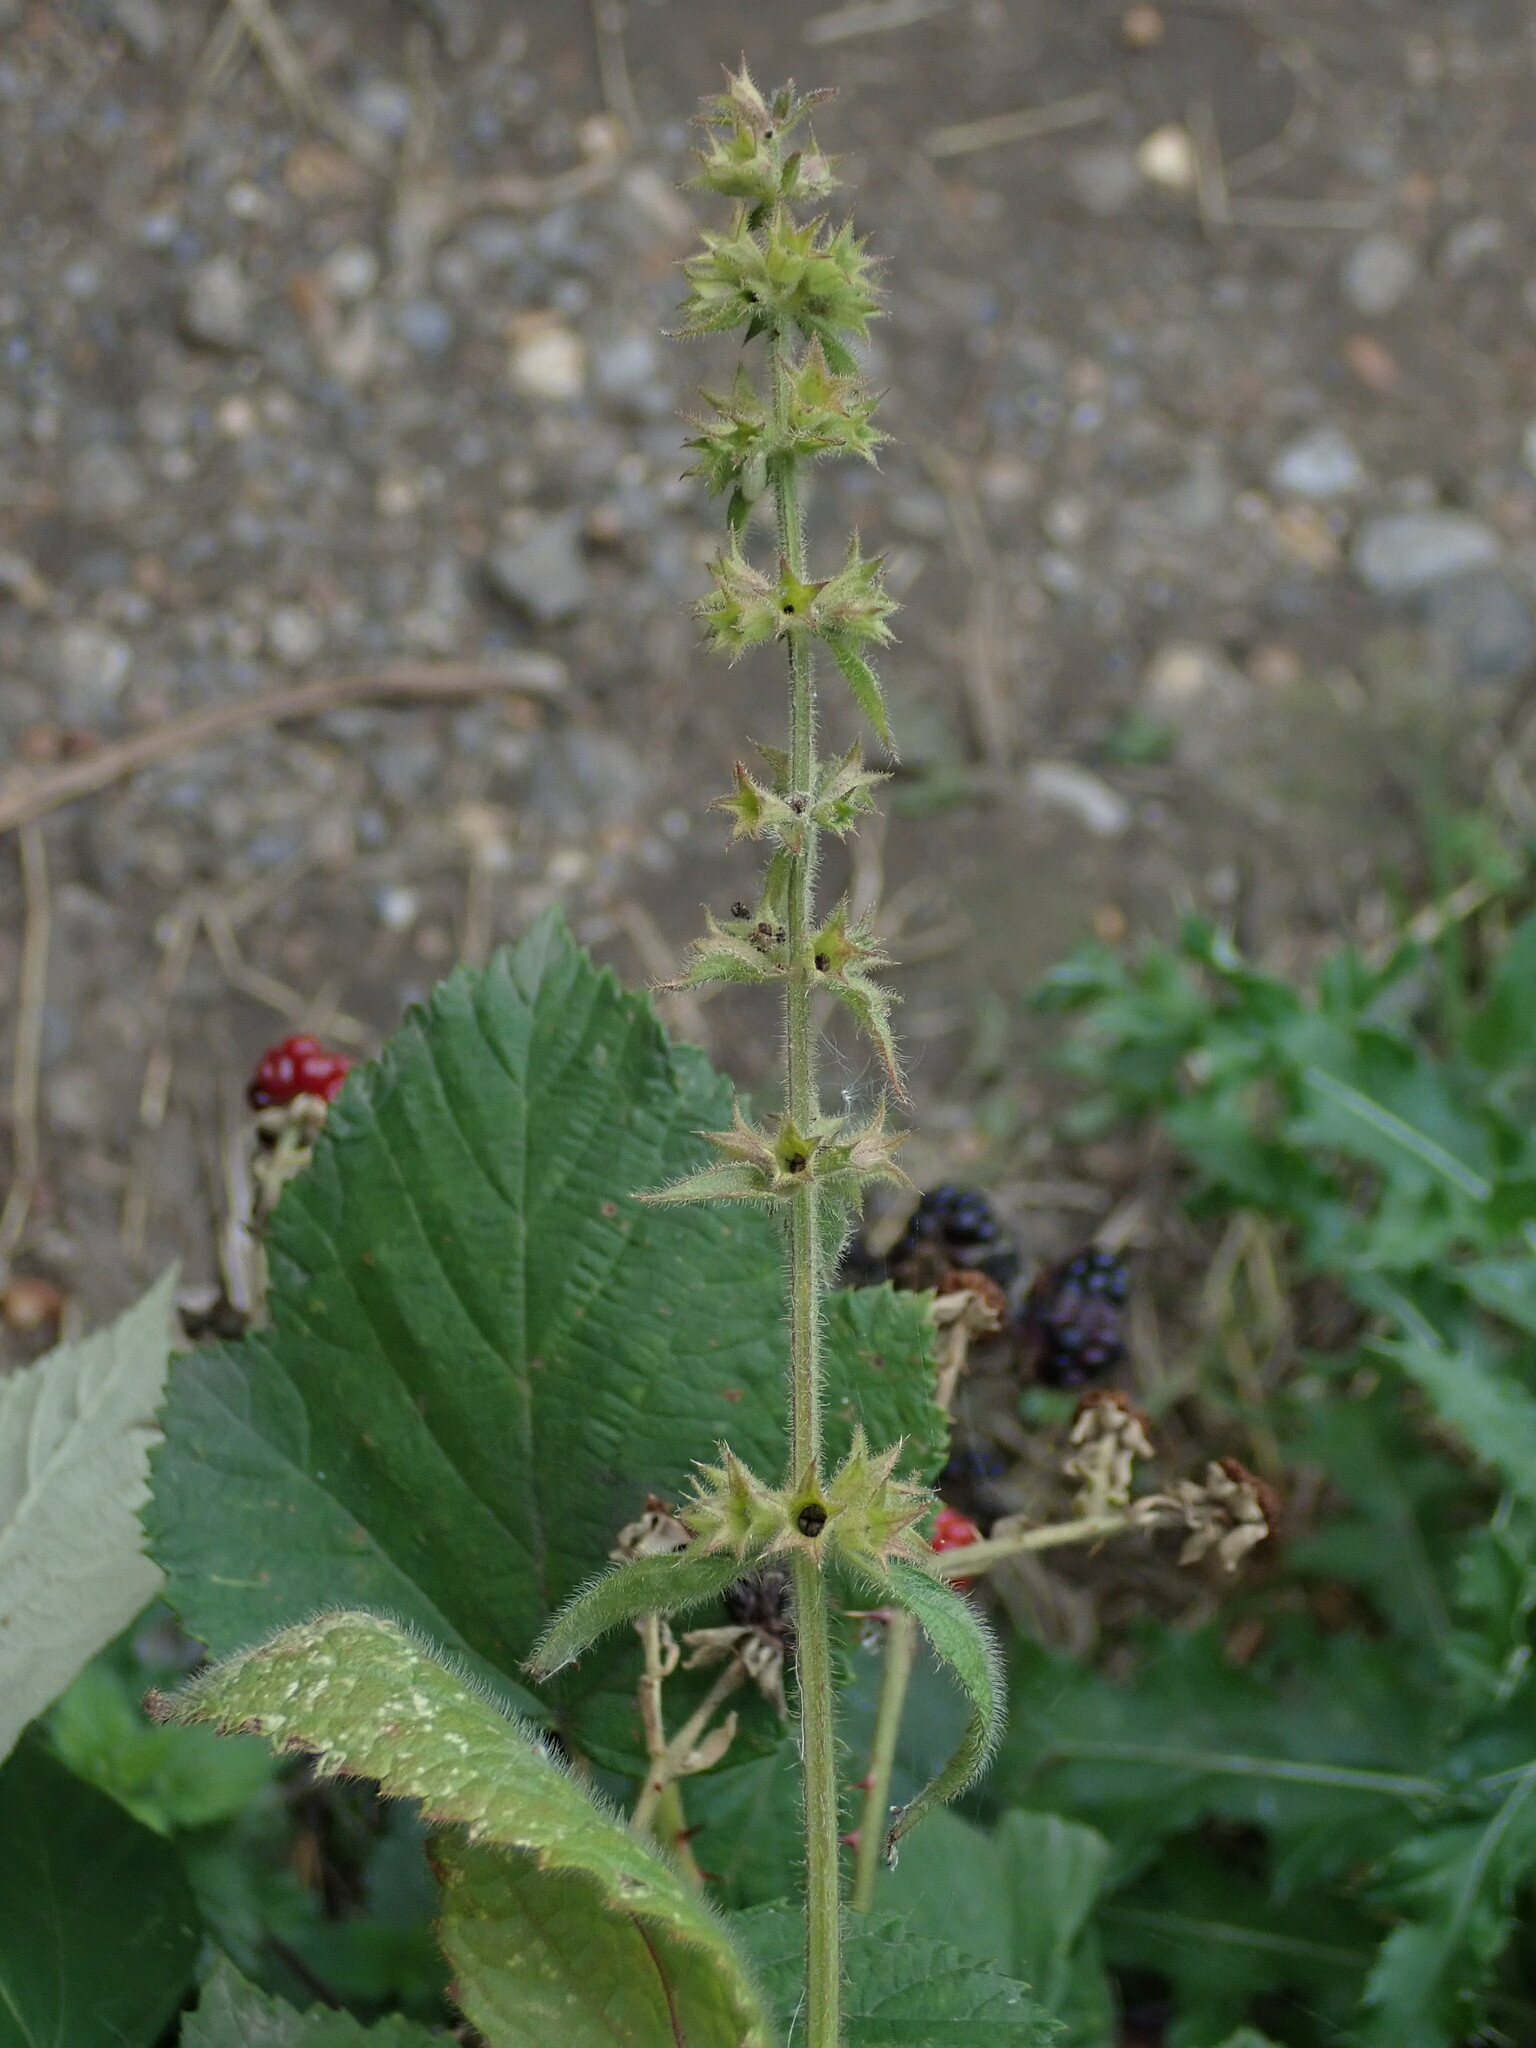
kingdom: Plantae
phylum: Tracheophyta
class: Magnoliopsida
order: Lamiales
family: Lamiaceae
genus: Stachys
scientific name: Stachys sylvatica
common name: Hedge woundwort
